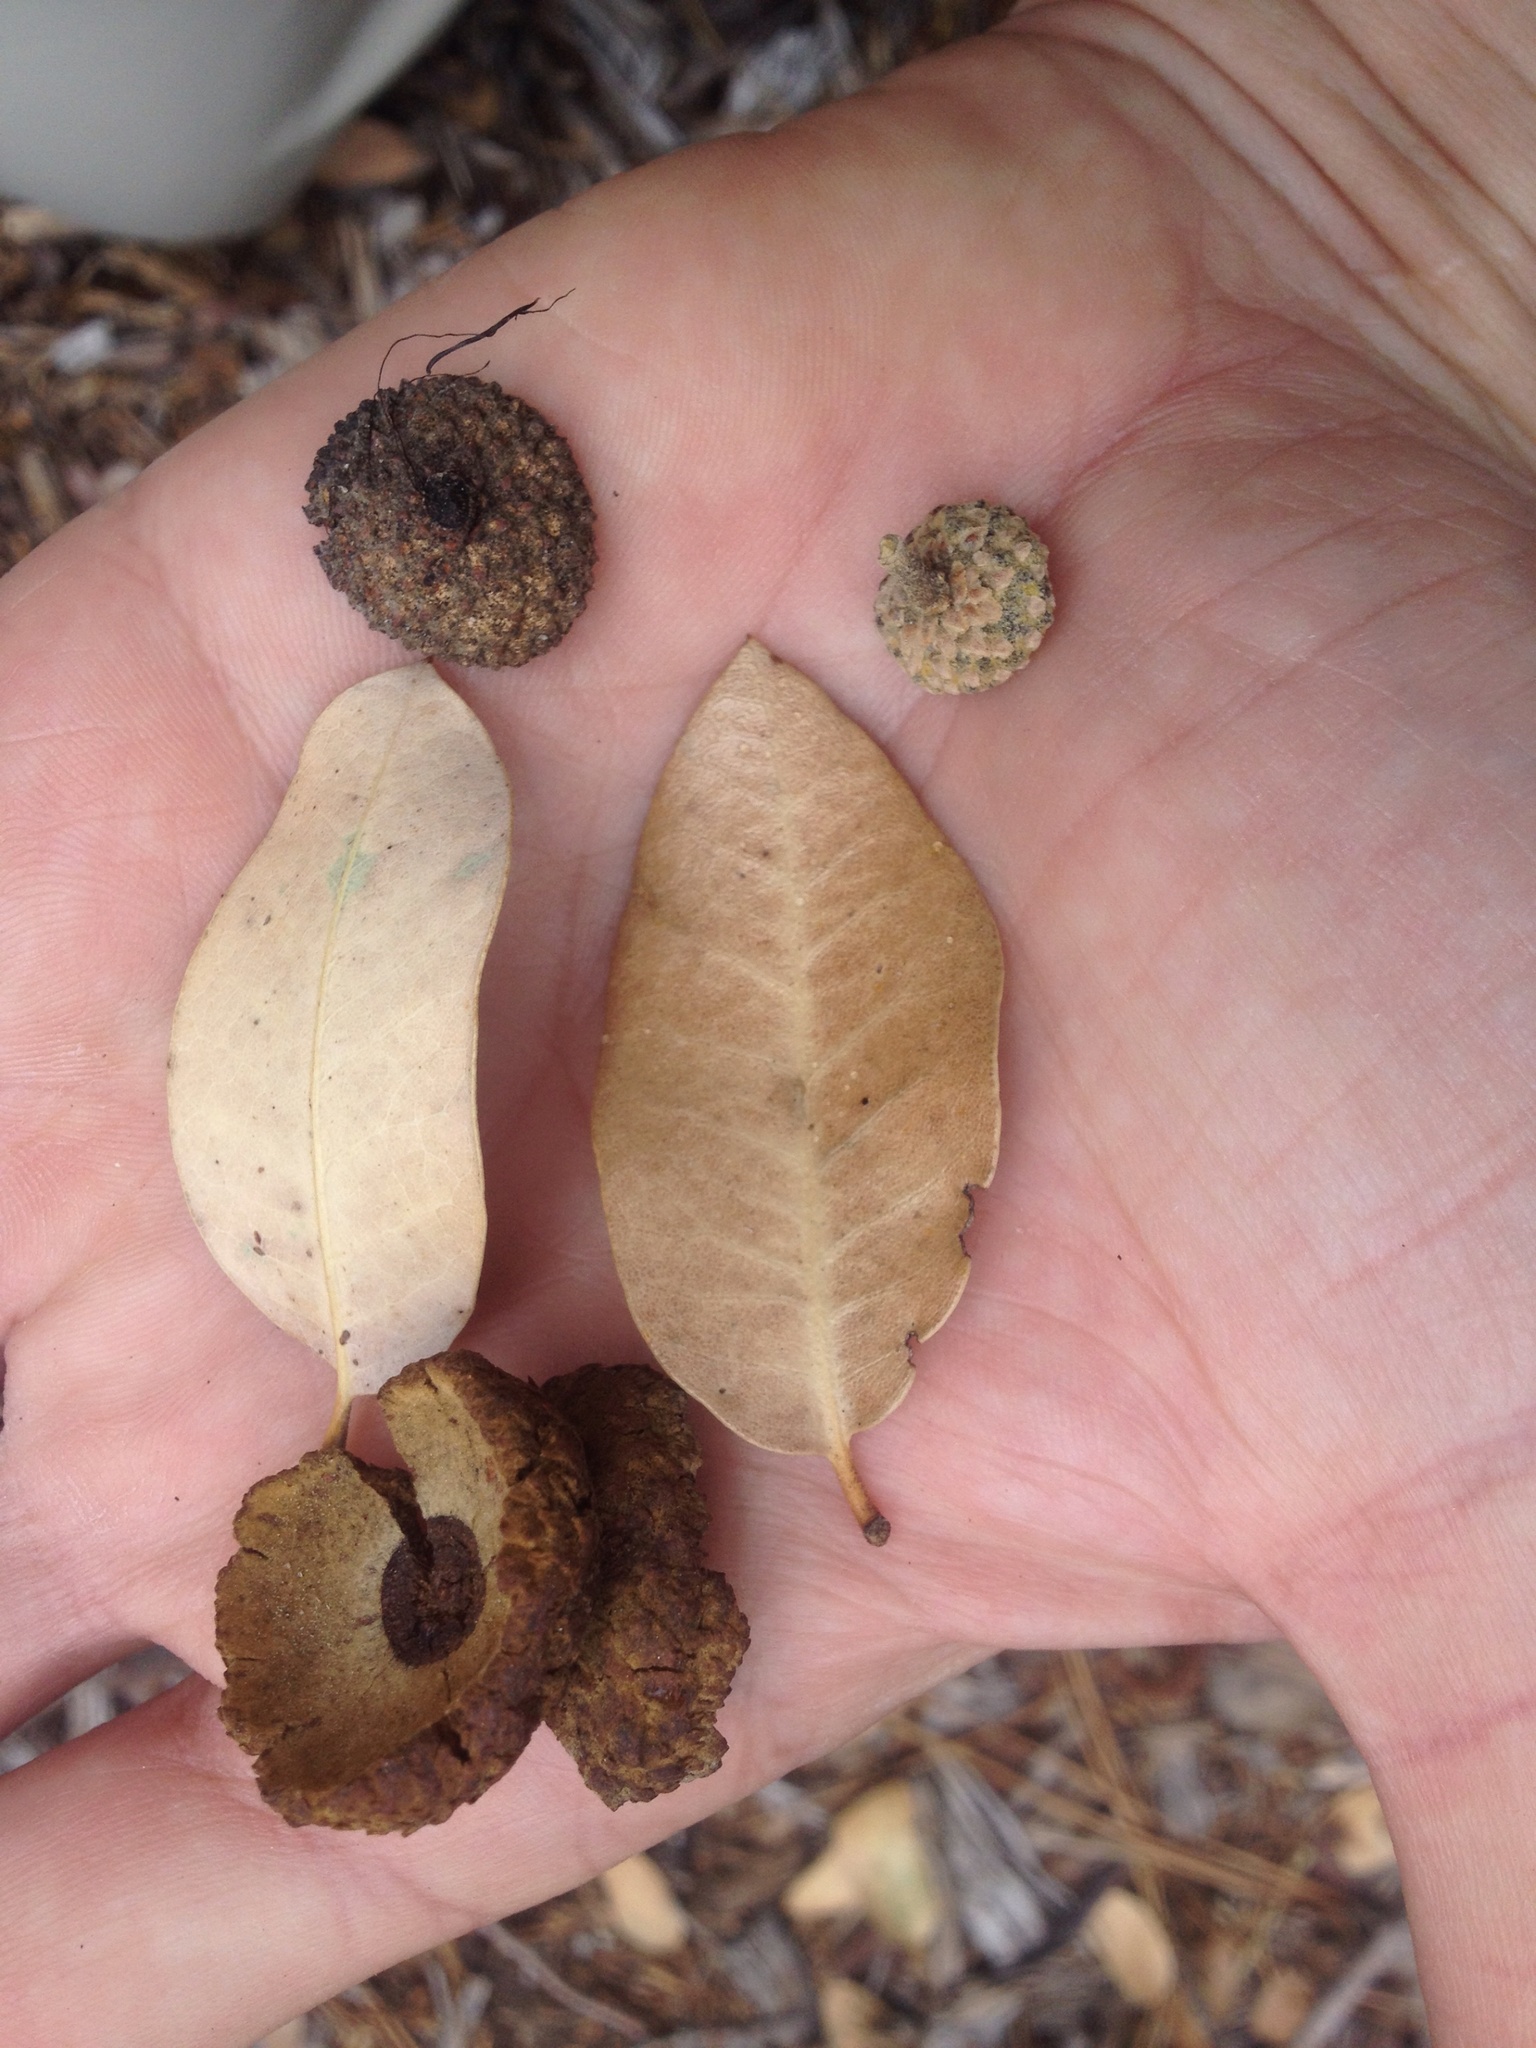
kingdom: Plantae
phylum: Tracheophyta
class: Magnoliopsida
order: Fagales
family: Fagaceae
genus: Quercus
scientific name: Quercus chrysolepis
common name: Canyon live oak
